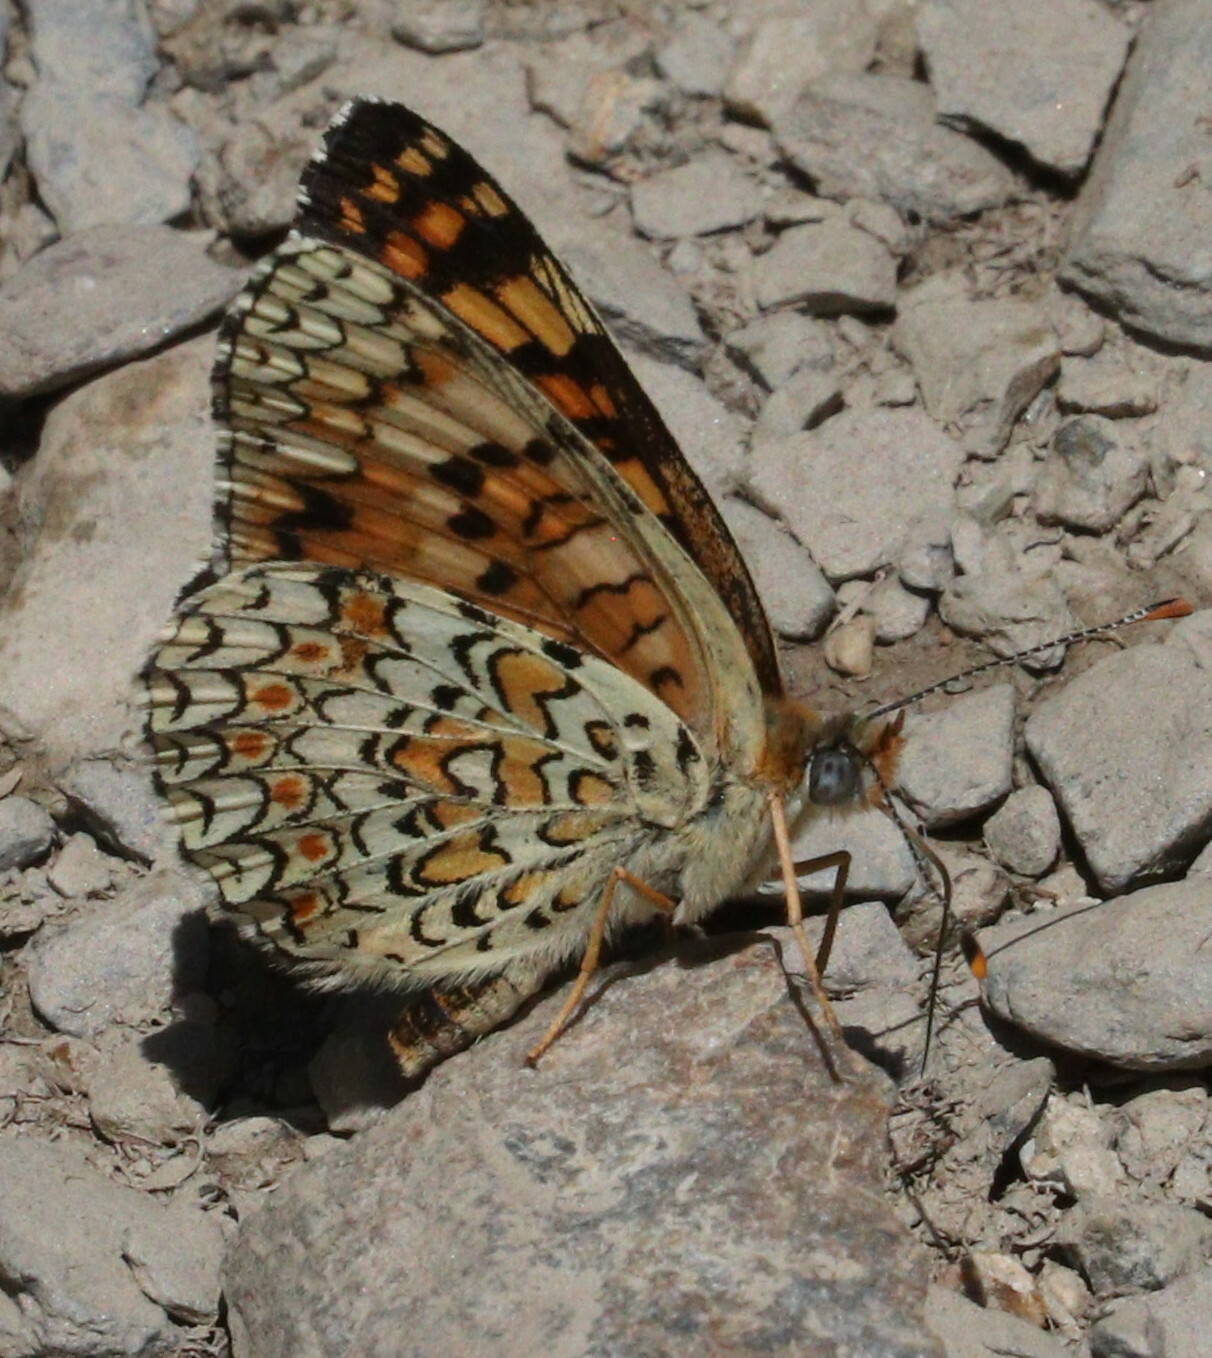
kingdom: Animalia
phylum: Arthropoda
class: Insecta
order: Lepidoptera
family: Nymphalidae
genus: Melitaea
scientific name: Melitaea phoebe
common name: Knapweed fritillary
